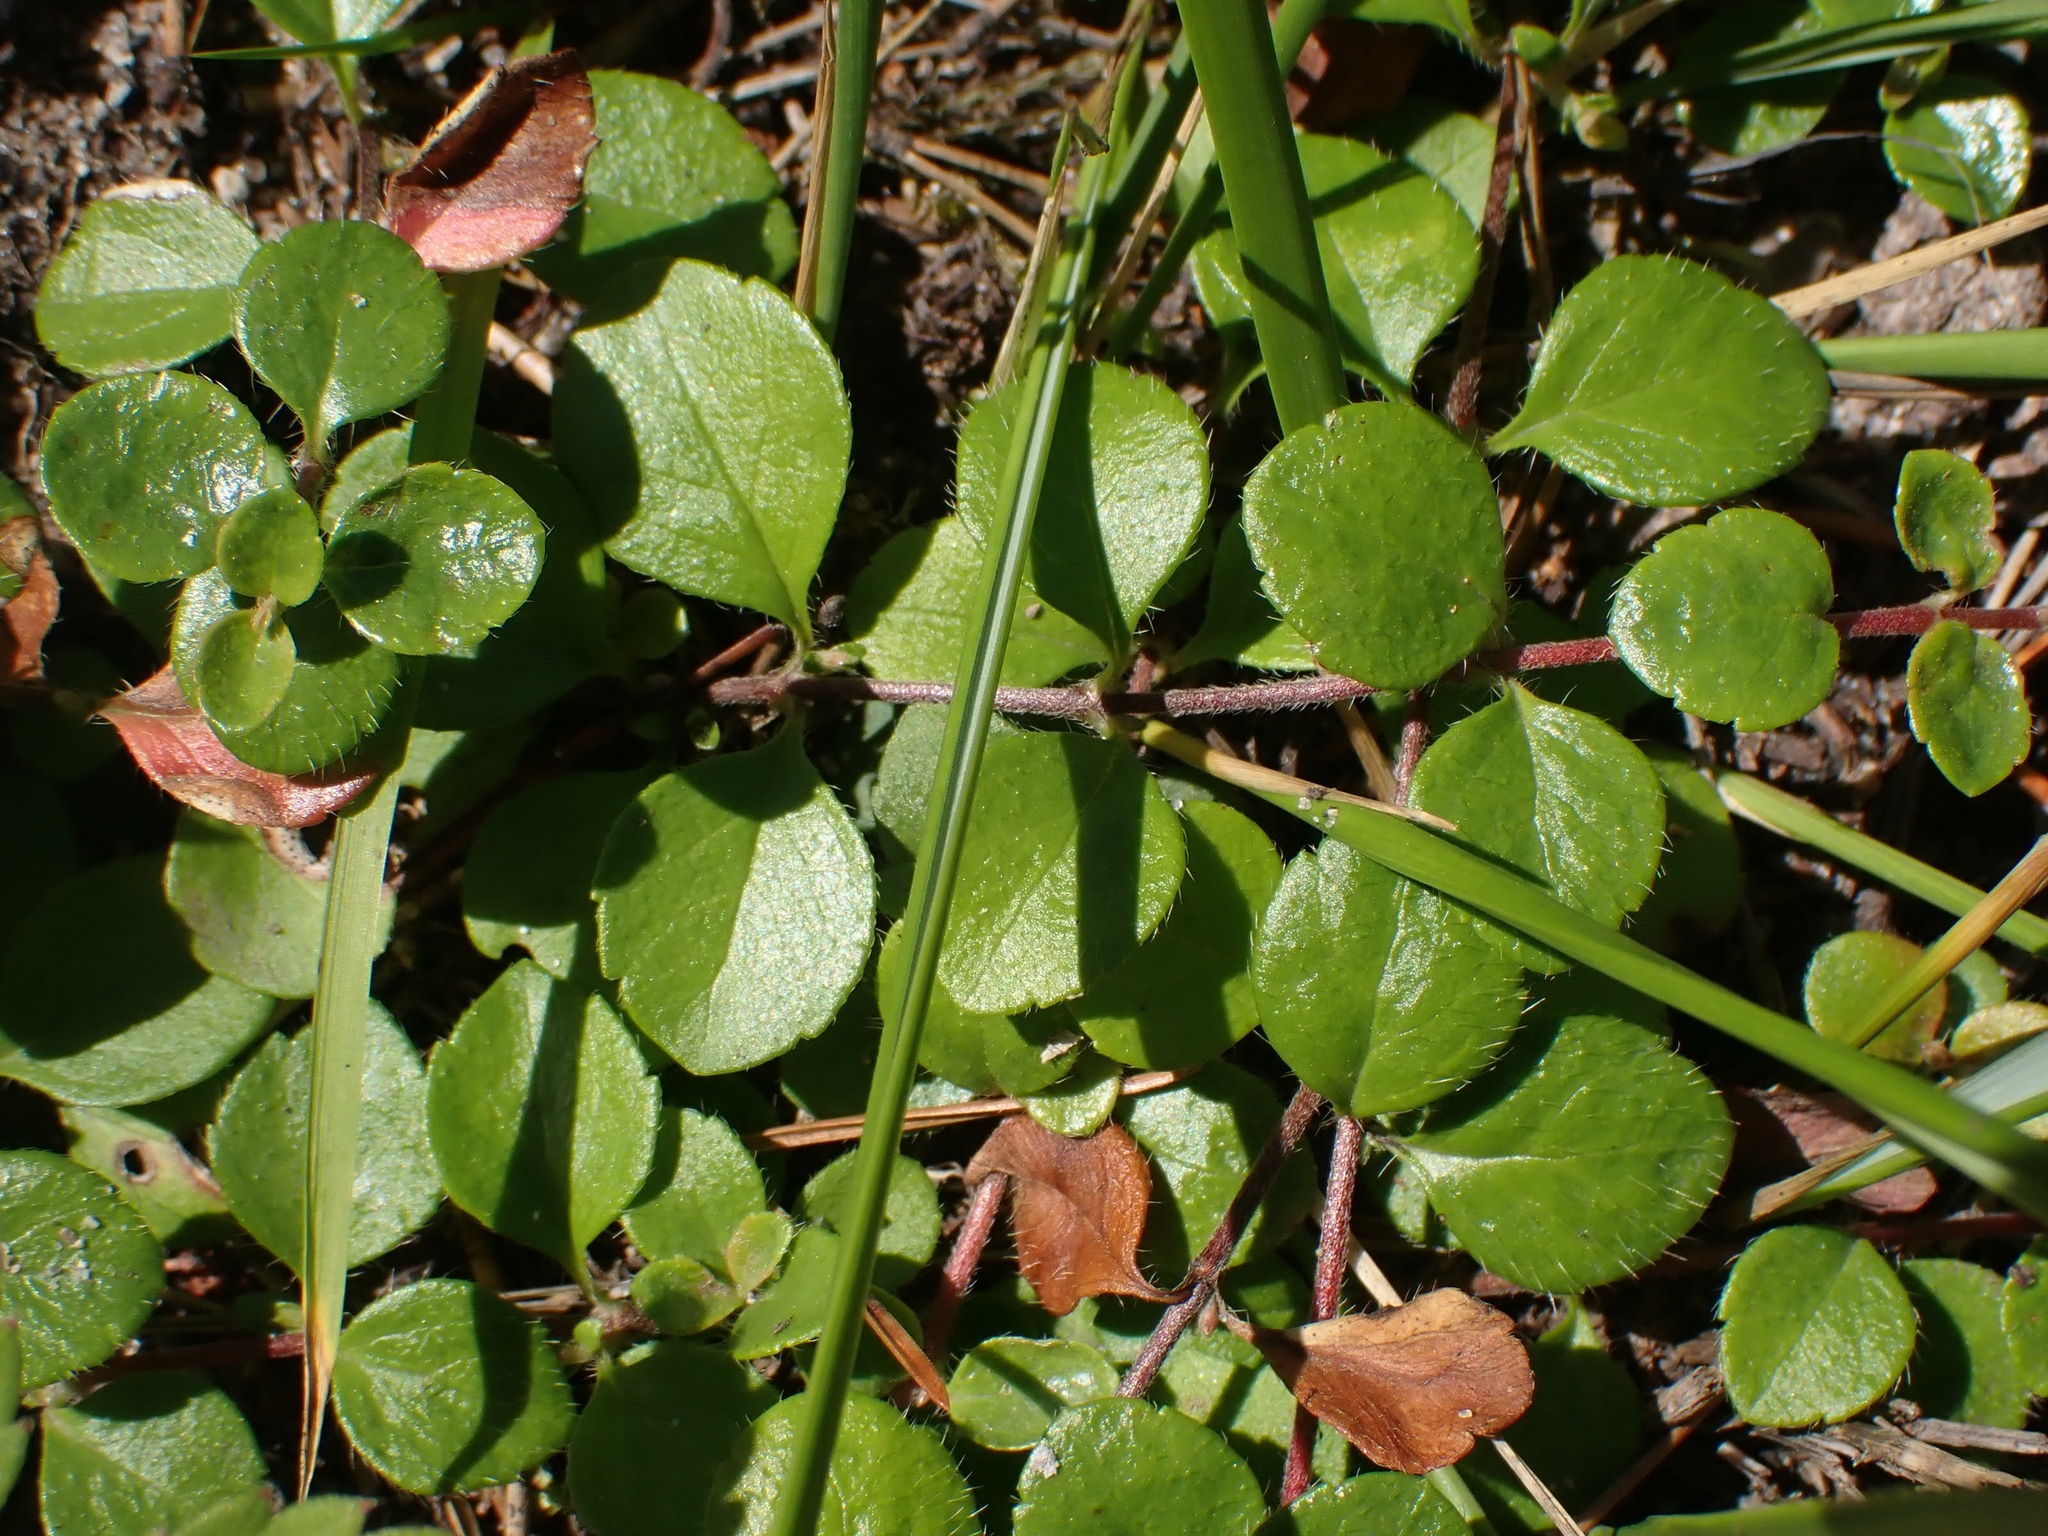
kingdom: Plantae
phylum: Tracheophyta
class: Magnoliopsida
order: Dipsacales
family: Caprifoliaceae
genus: Linnaea
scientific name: Linnaea borealis
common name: Twinflower
